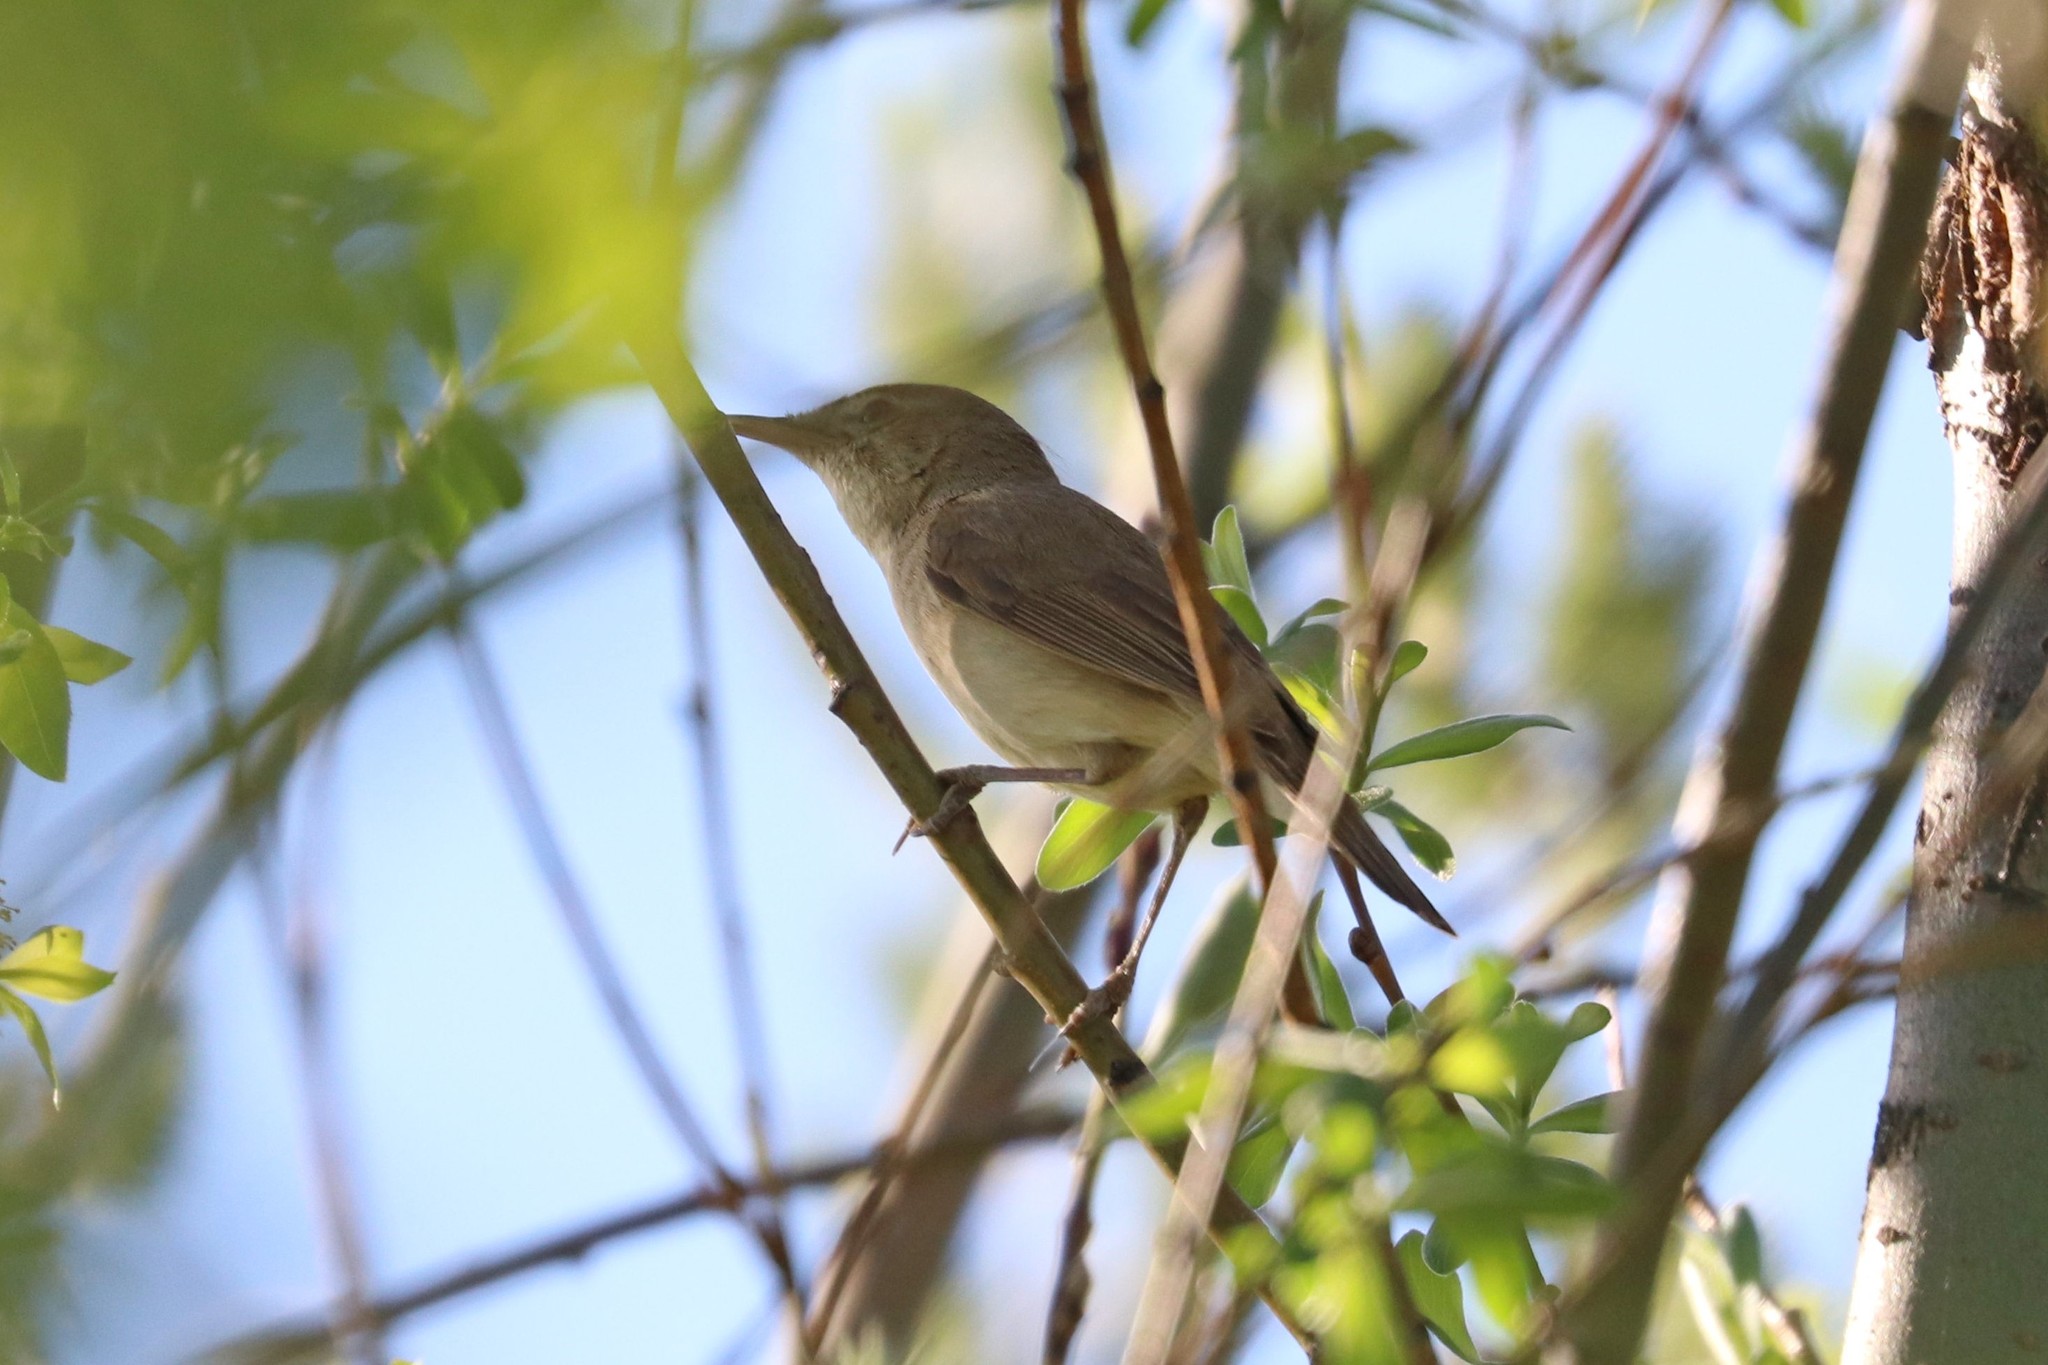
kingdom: Animalia
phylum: Chordata
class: Aves
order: Passeriformes
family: Acrocephalidae
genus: Acrocephalus
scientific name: Acrocephalus dumetorum
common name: Blyth's reed warbler
